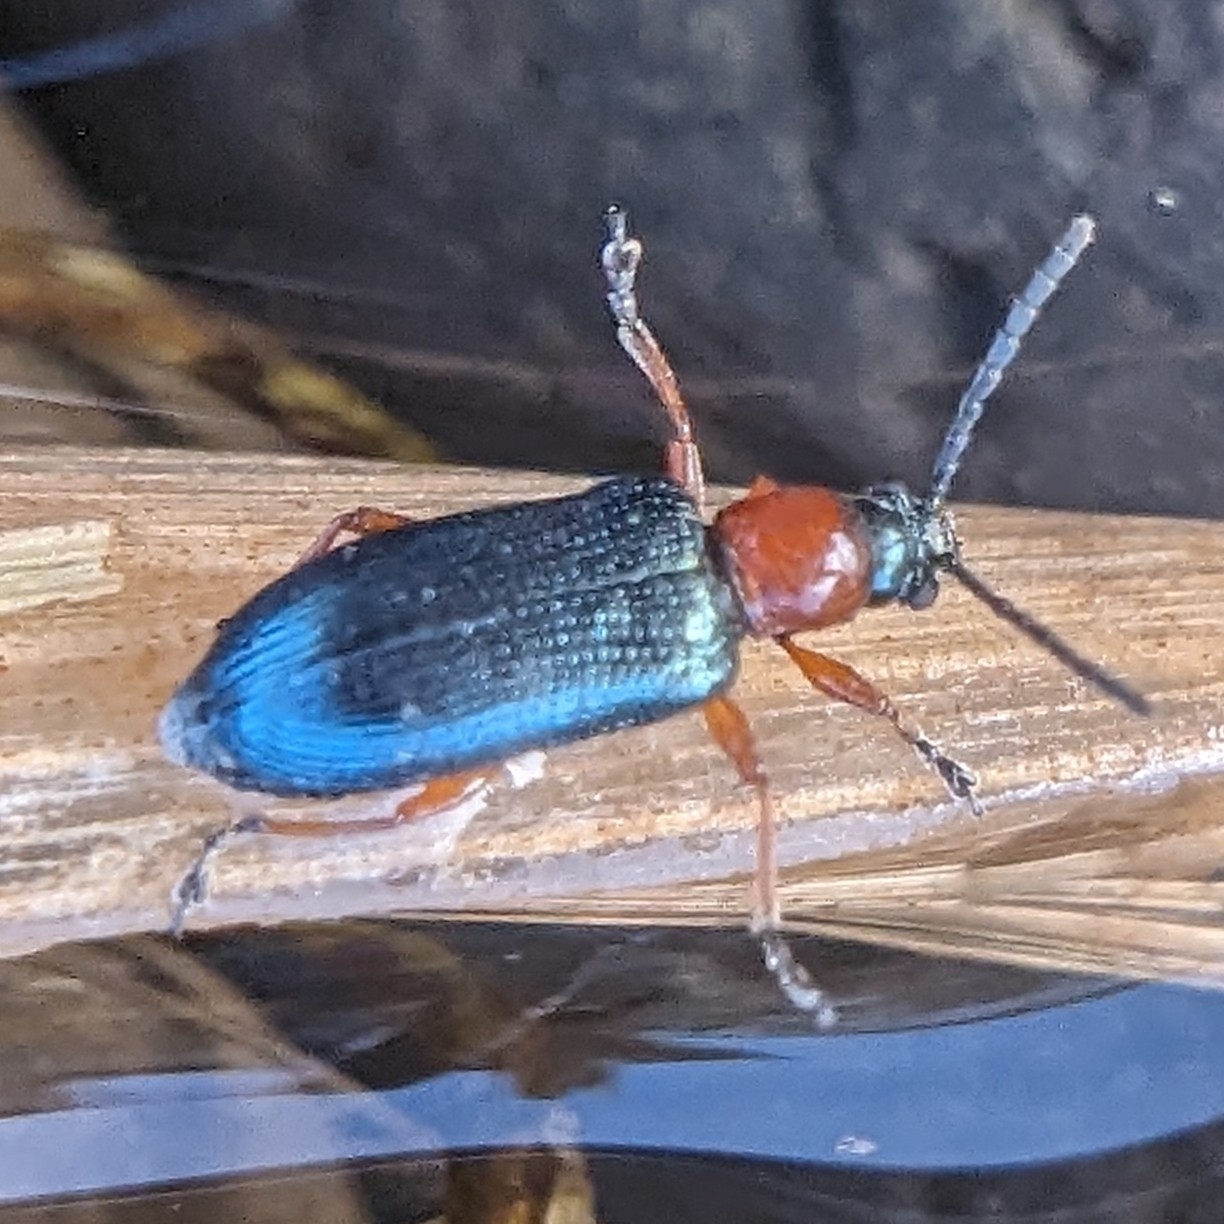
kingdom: Animalia
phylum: Arthropoda
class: Insecta
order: Coleoptera
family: Chrysomelidae
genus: Oulema
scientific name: Oulema melanopus
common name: Cereal leaf beetle
